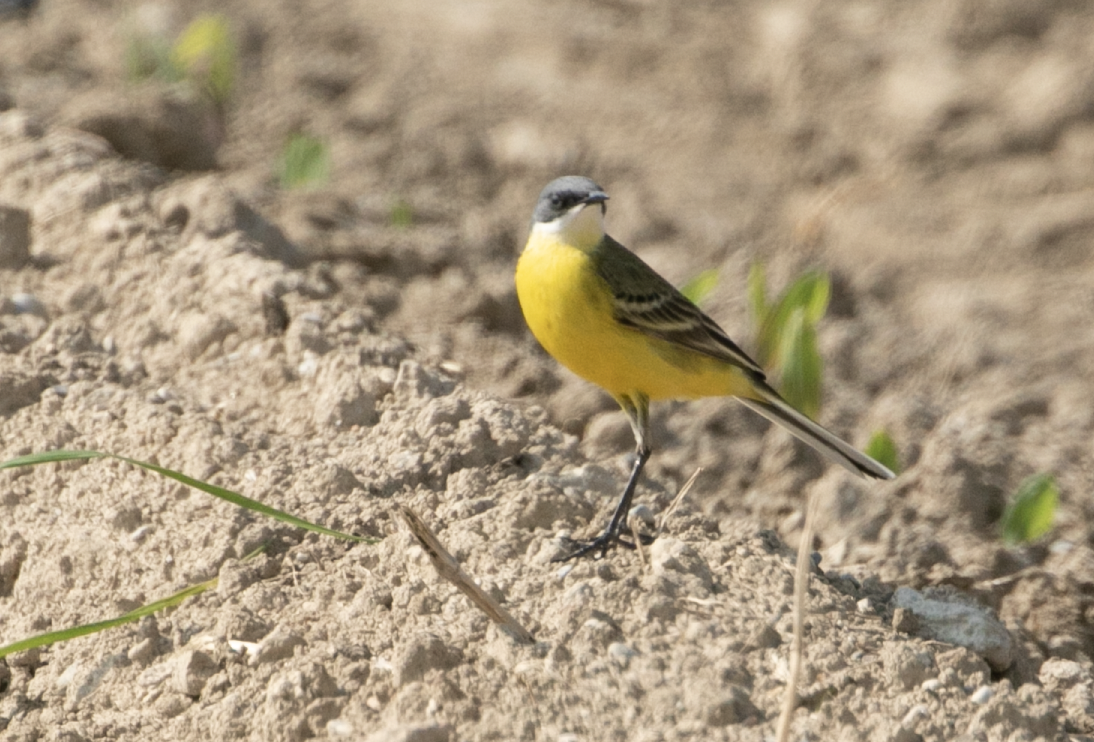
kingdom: Animalia
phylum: Chordata
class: Aves
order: Passeriformes
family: Motacillidae
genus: Motacilla
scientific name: Motacilla flava
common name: Western yellow wagtail
